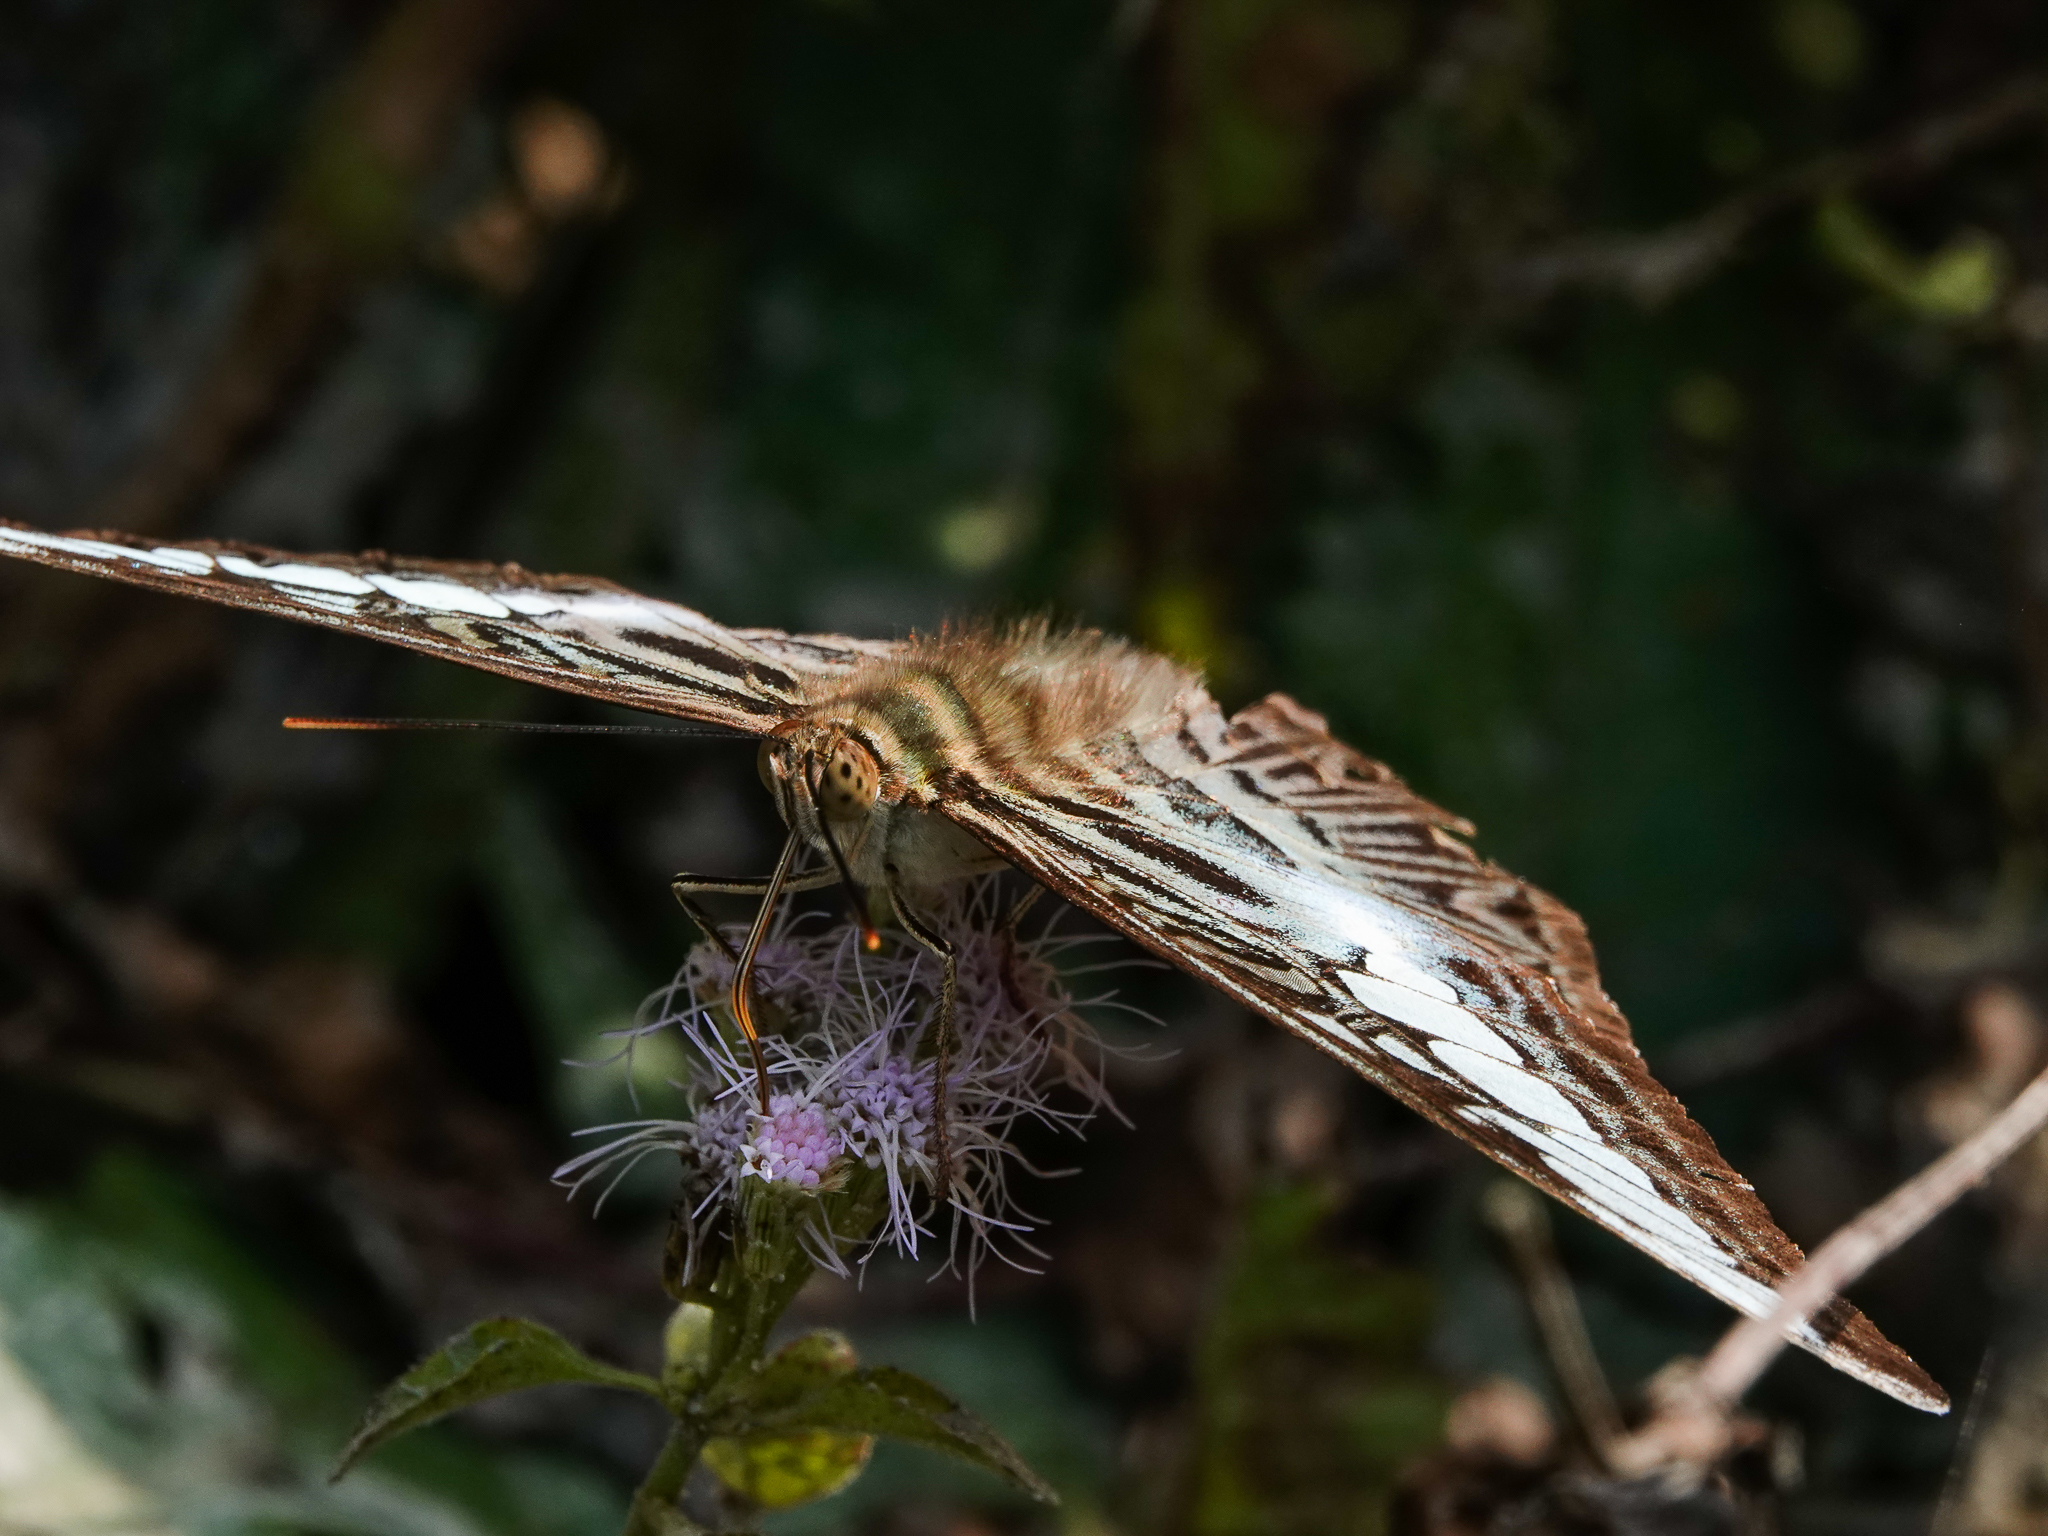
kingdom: Animalia
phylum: Arthropoda
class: Insecta
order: Lepidoptera
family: Nymphalidae
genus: Kallima
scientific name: Kallima sylvia
